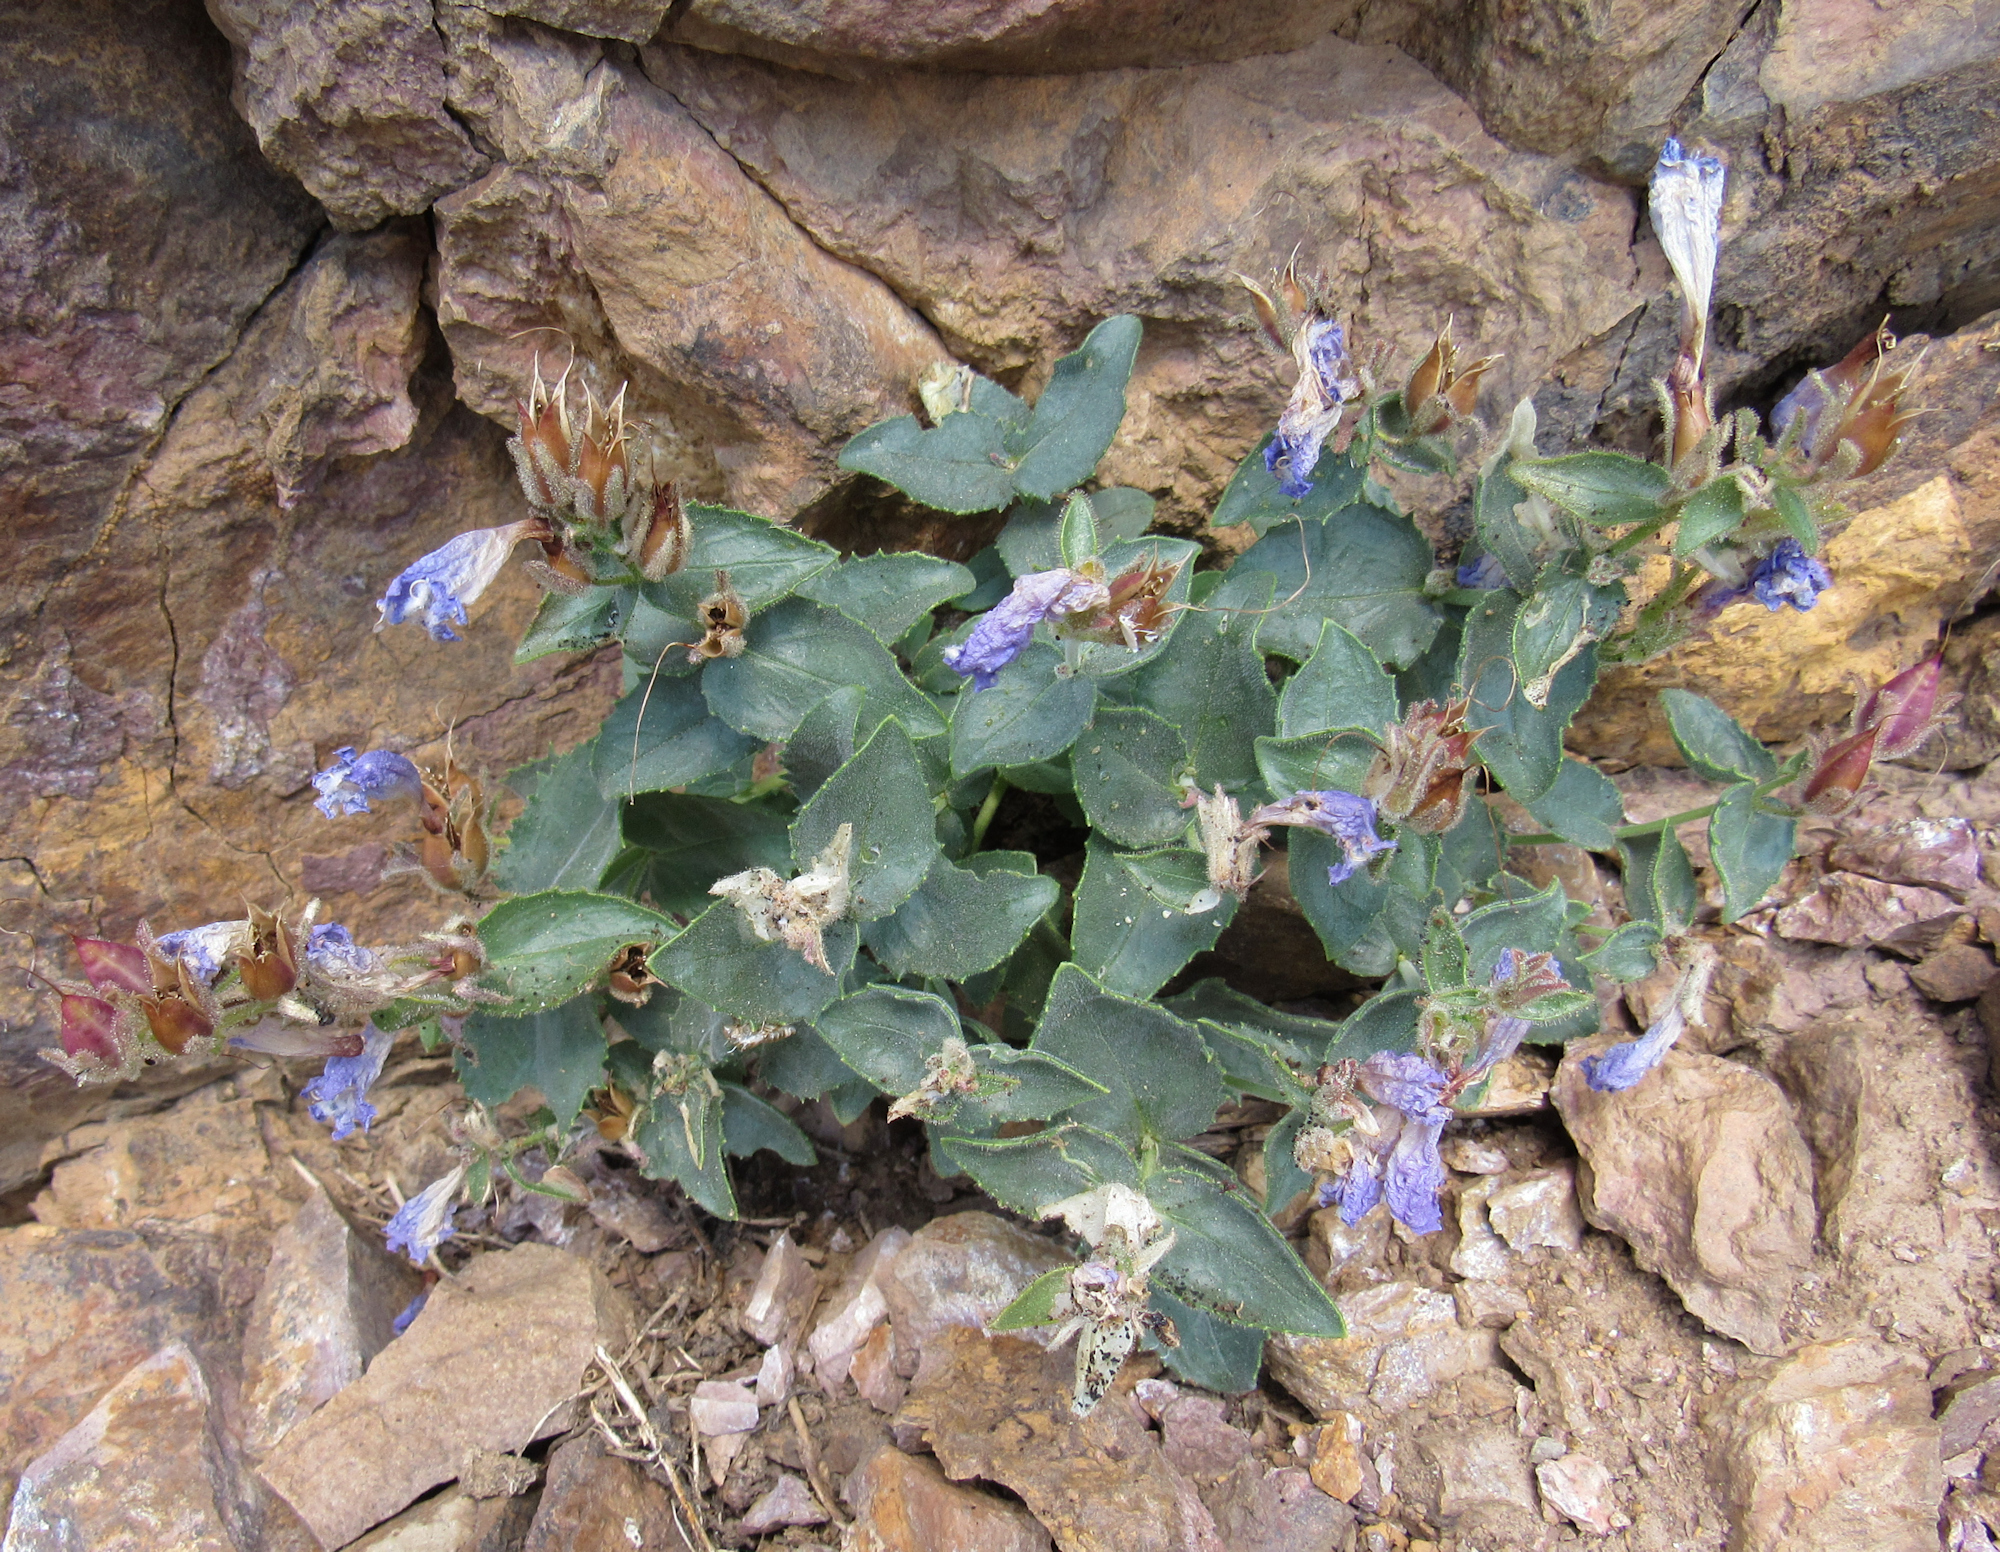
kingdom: Plantae
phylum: Tracheophyta
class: Magnoliopsida
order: Lamiales
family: Plantaginaceae
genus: Penstemon
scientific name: Penstemon montanus
